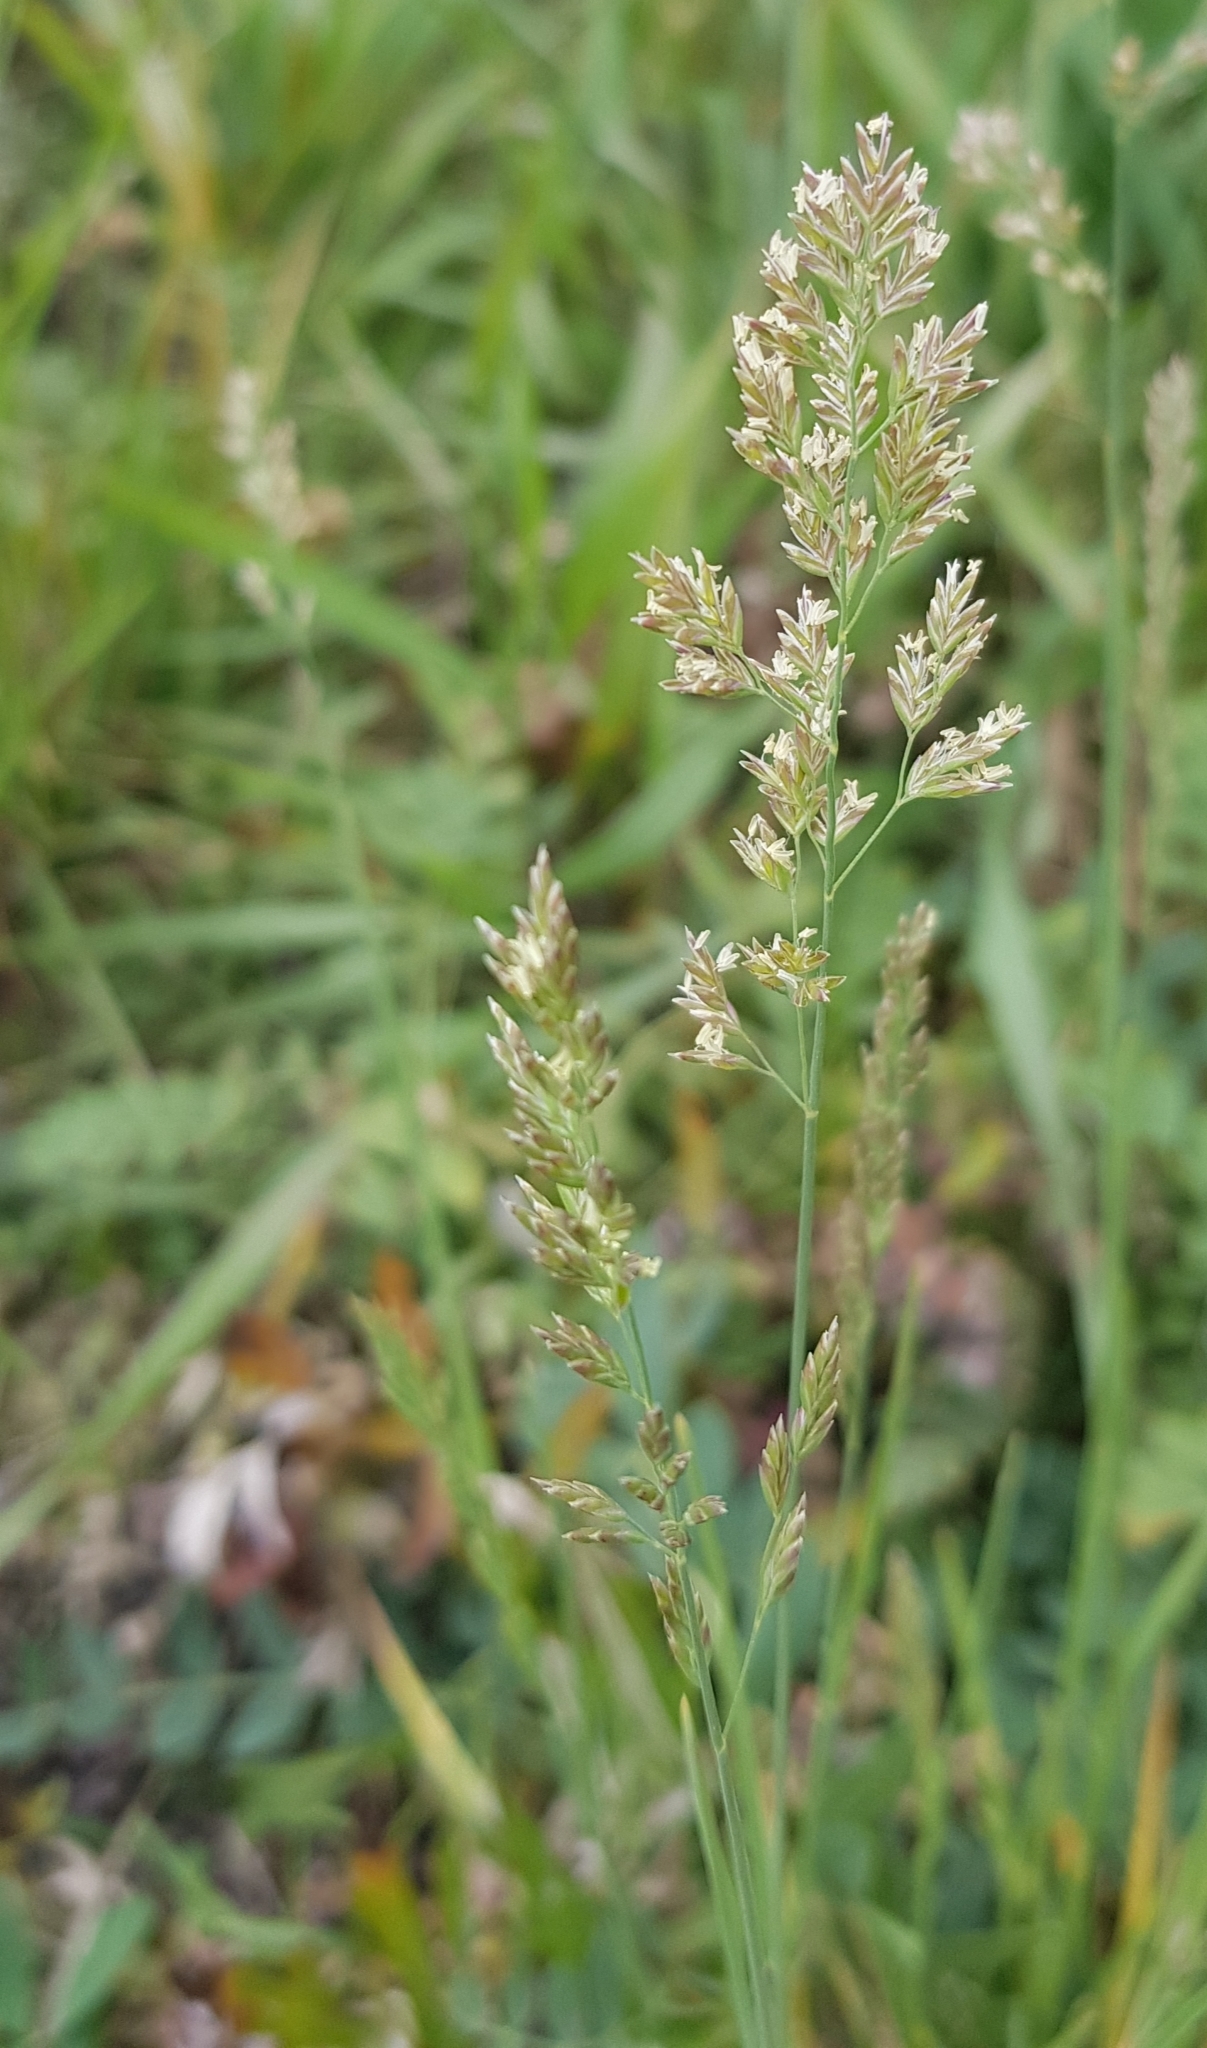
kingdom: Plantae
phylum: Tracheophyta
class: Liliopsida
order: Poales
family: Poaceae
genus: Poa
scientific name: Poa pratensis
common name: Kentucky bluegrass
